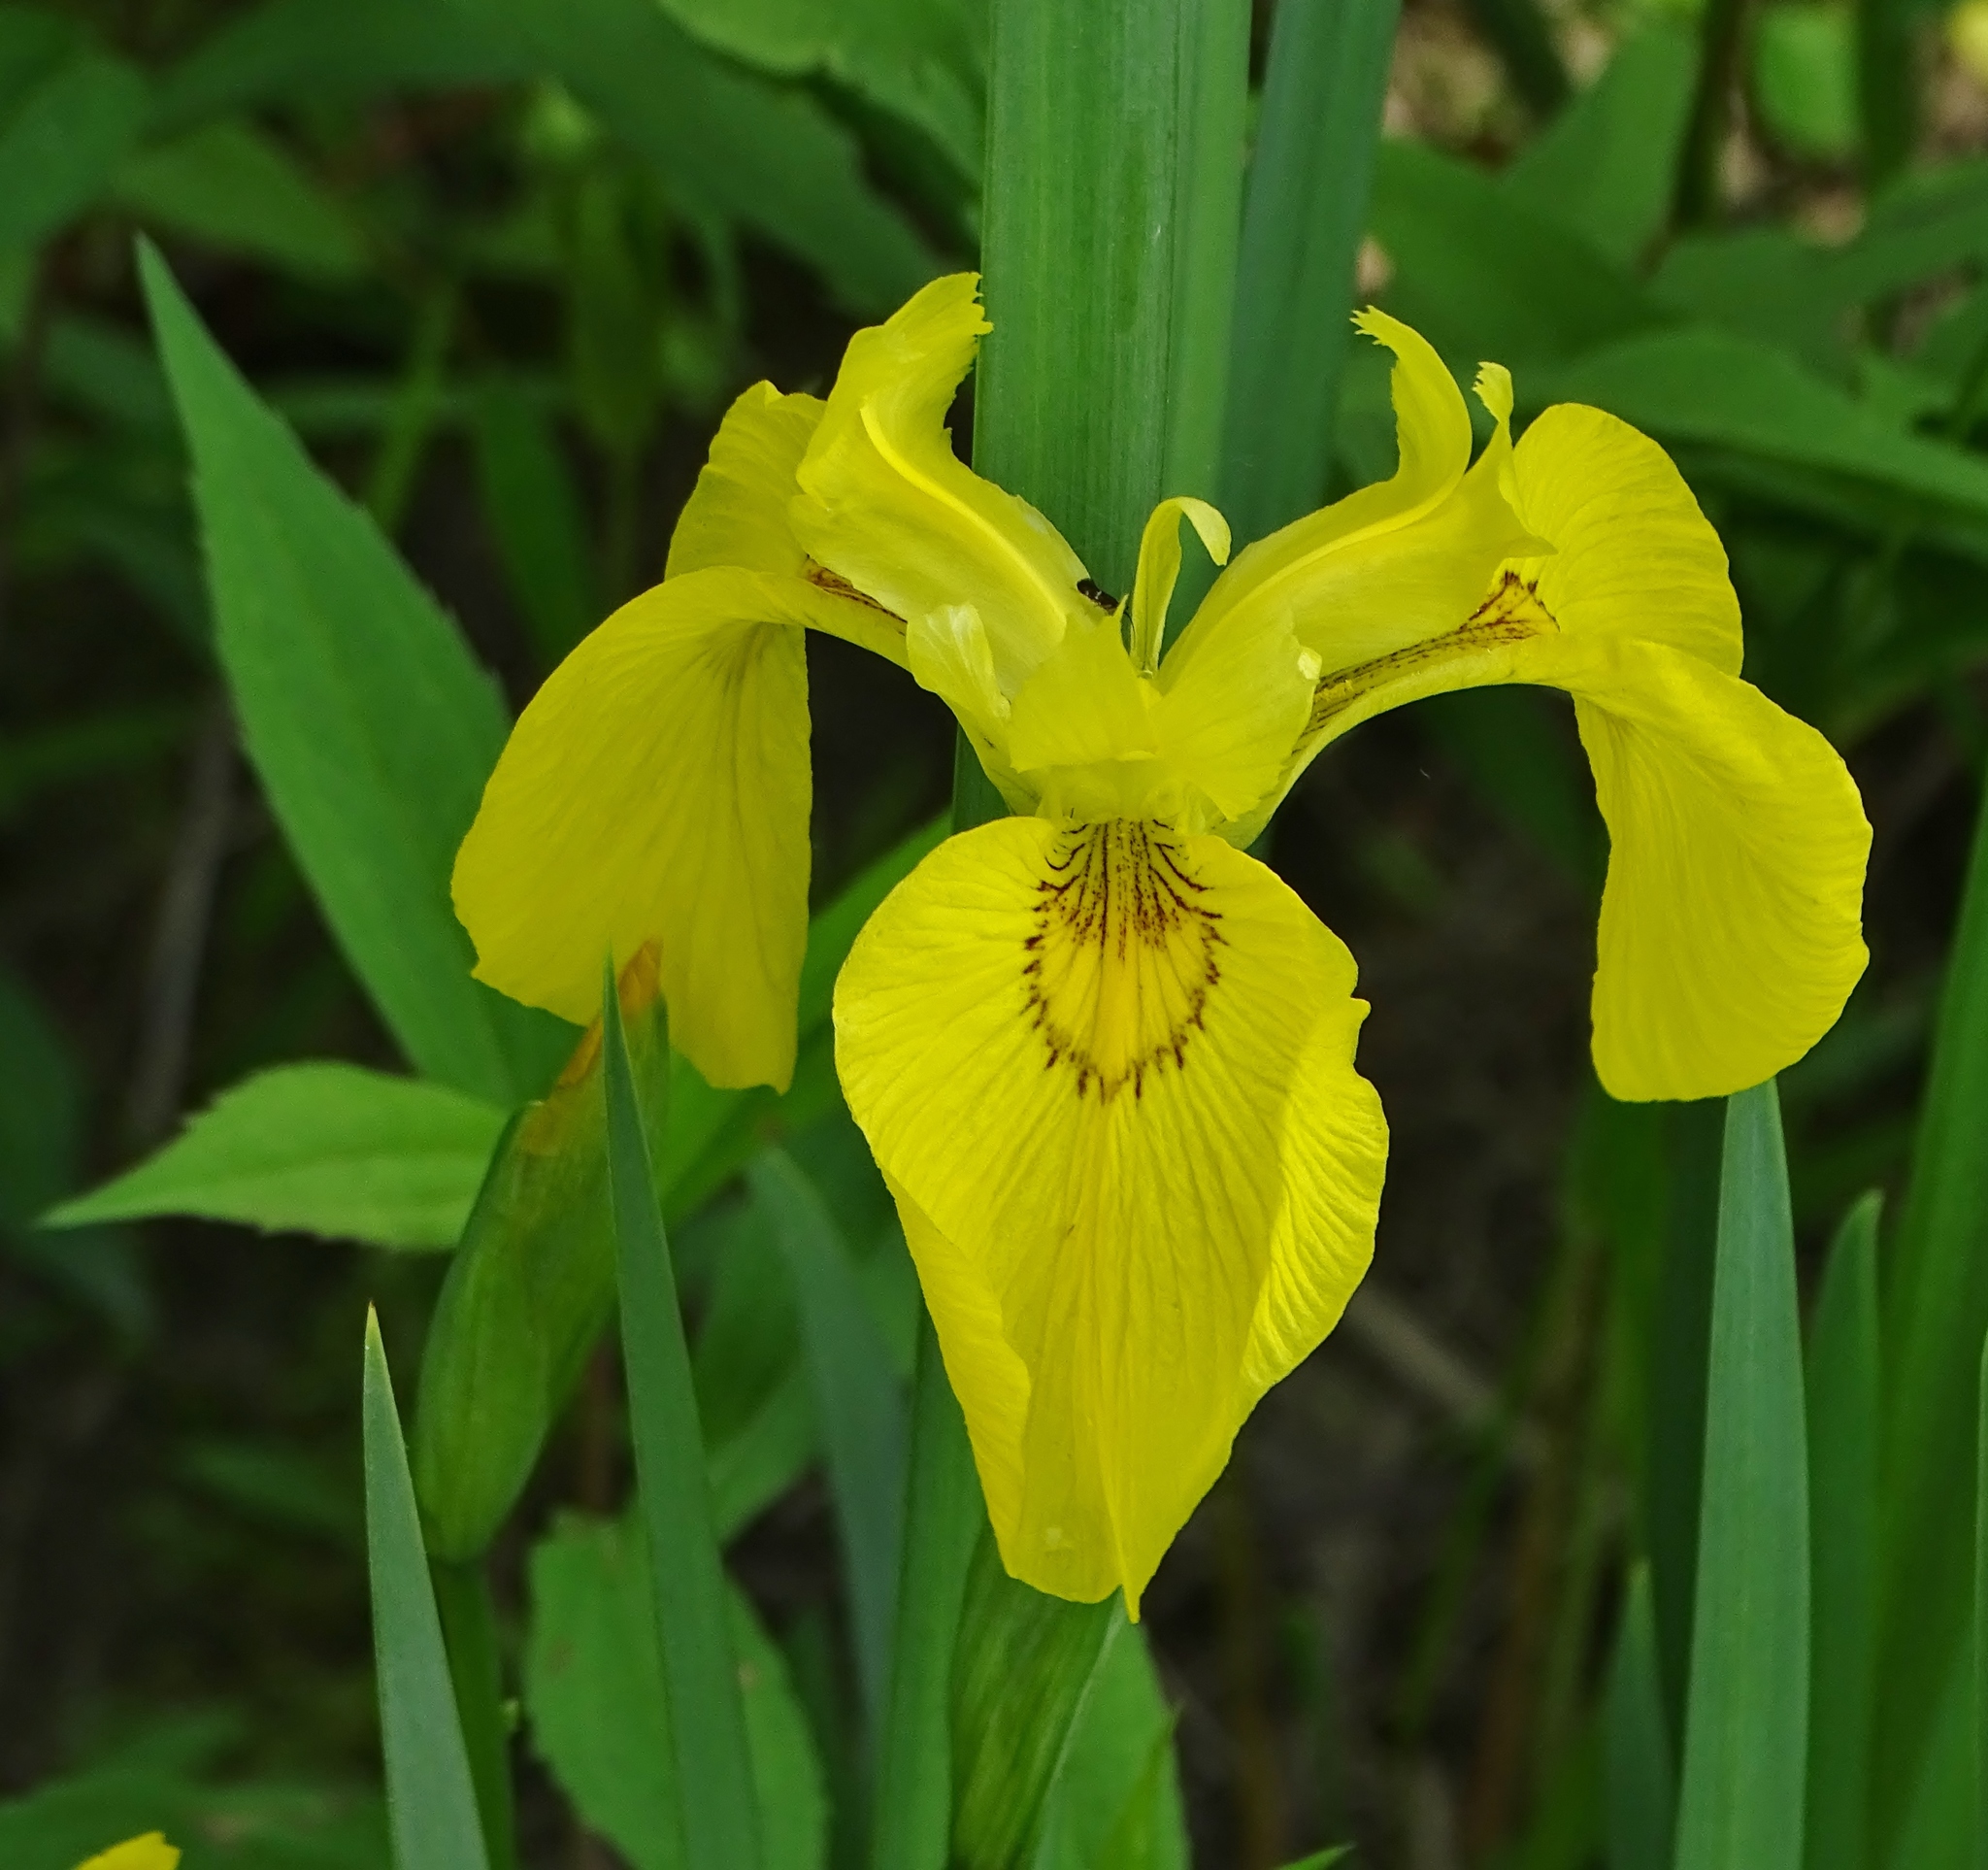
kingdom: Plantae
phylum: Tracheophyta
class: Liliopsida
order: Asparagales
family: Iridaceae
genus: Iris
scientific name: Iris pseudacorus
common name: Yellow flag
